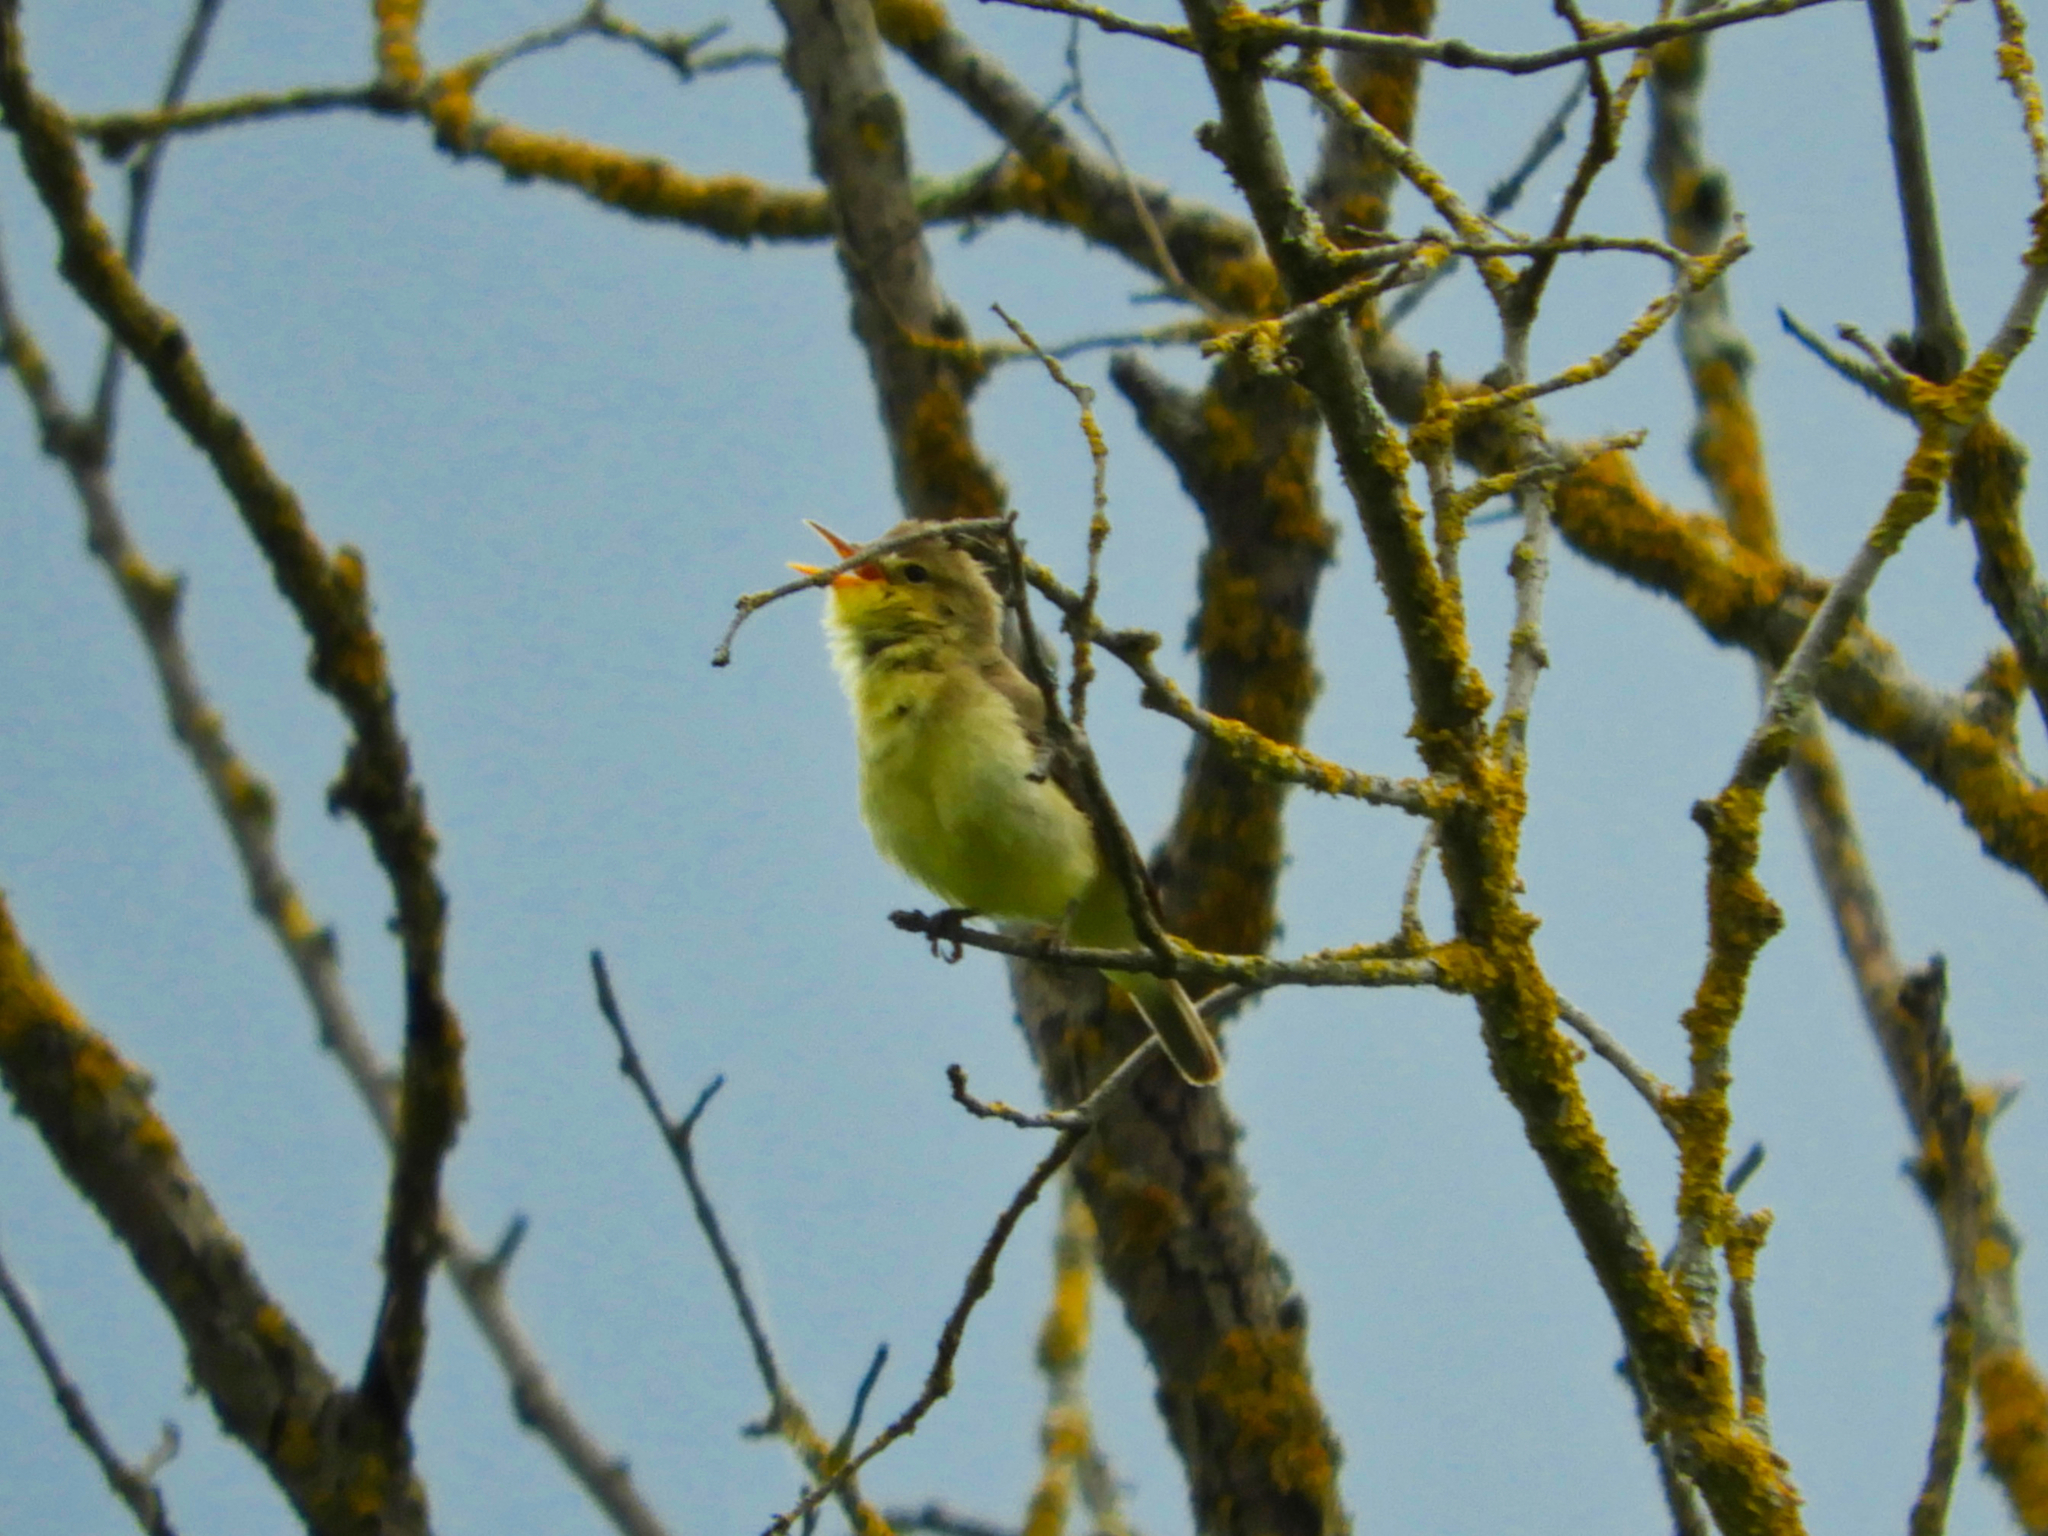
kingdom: Animalia
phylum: Chordata
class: Aves
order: Passeriformes
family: Acrocephalidae
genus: Hippolais
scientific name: Hippolais polyglotta
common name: Melodious warbler
